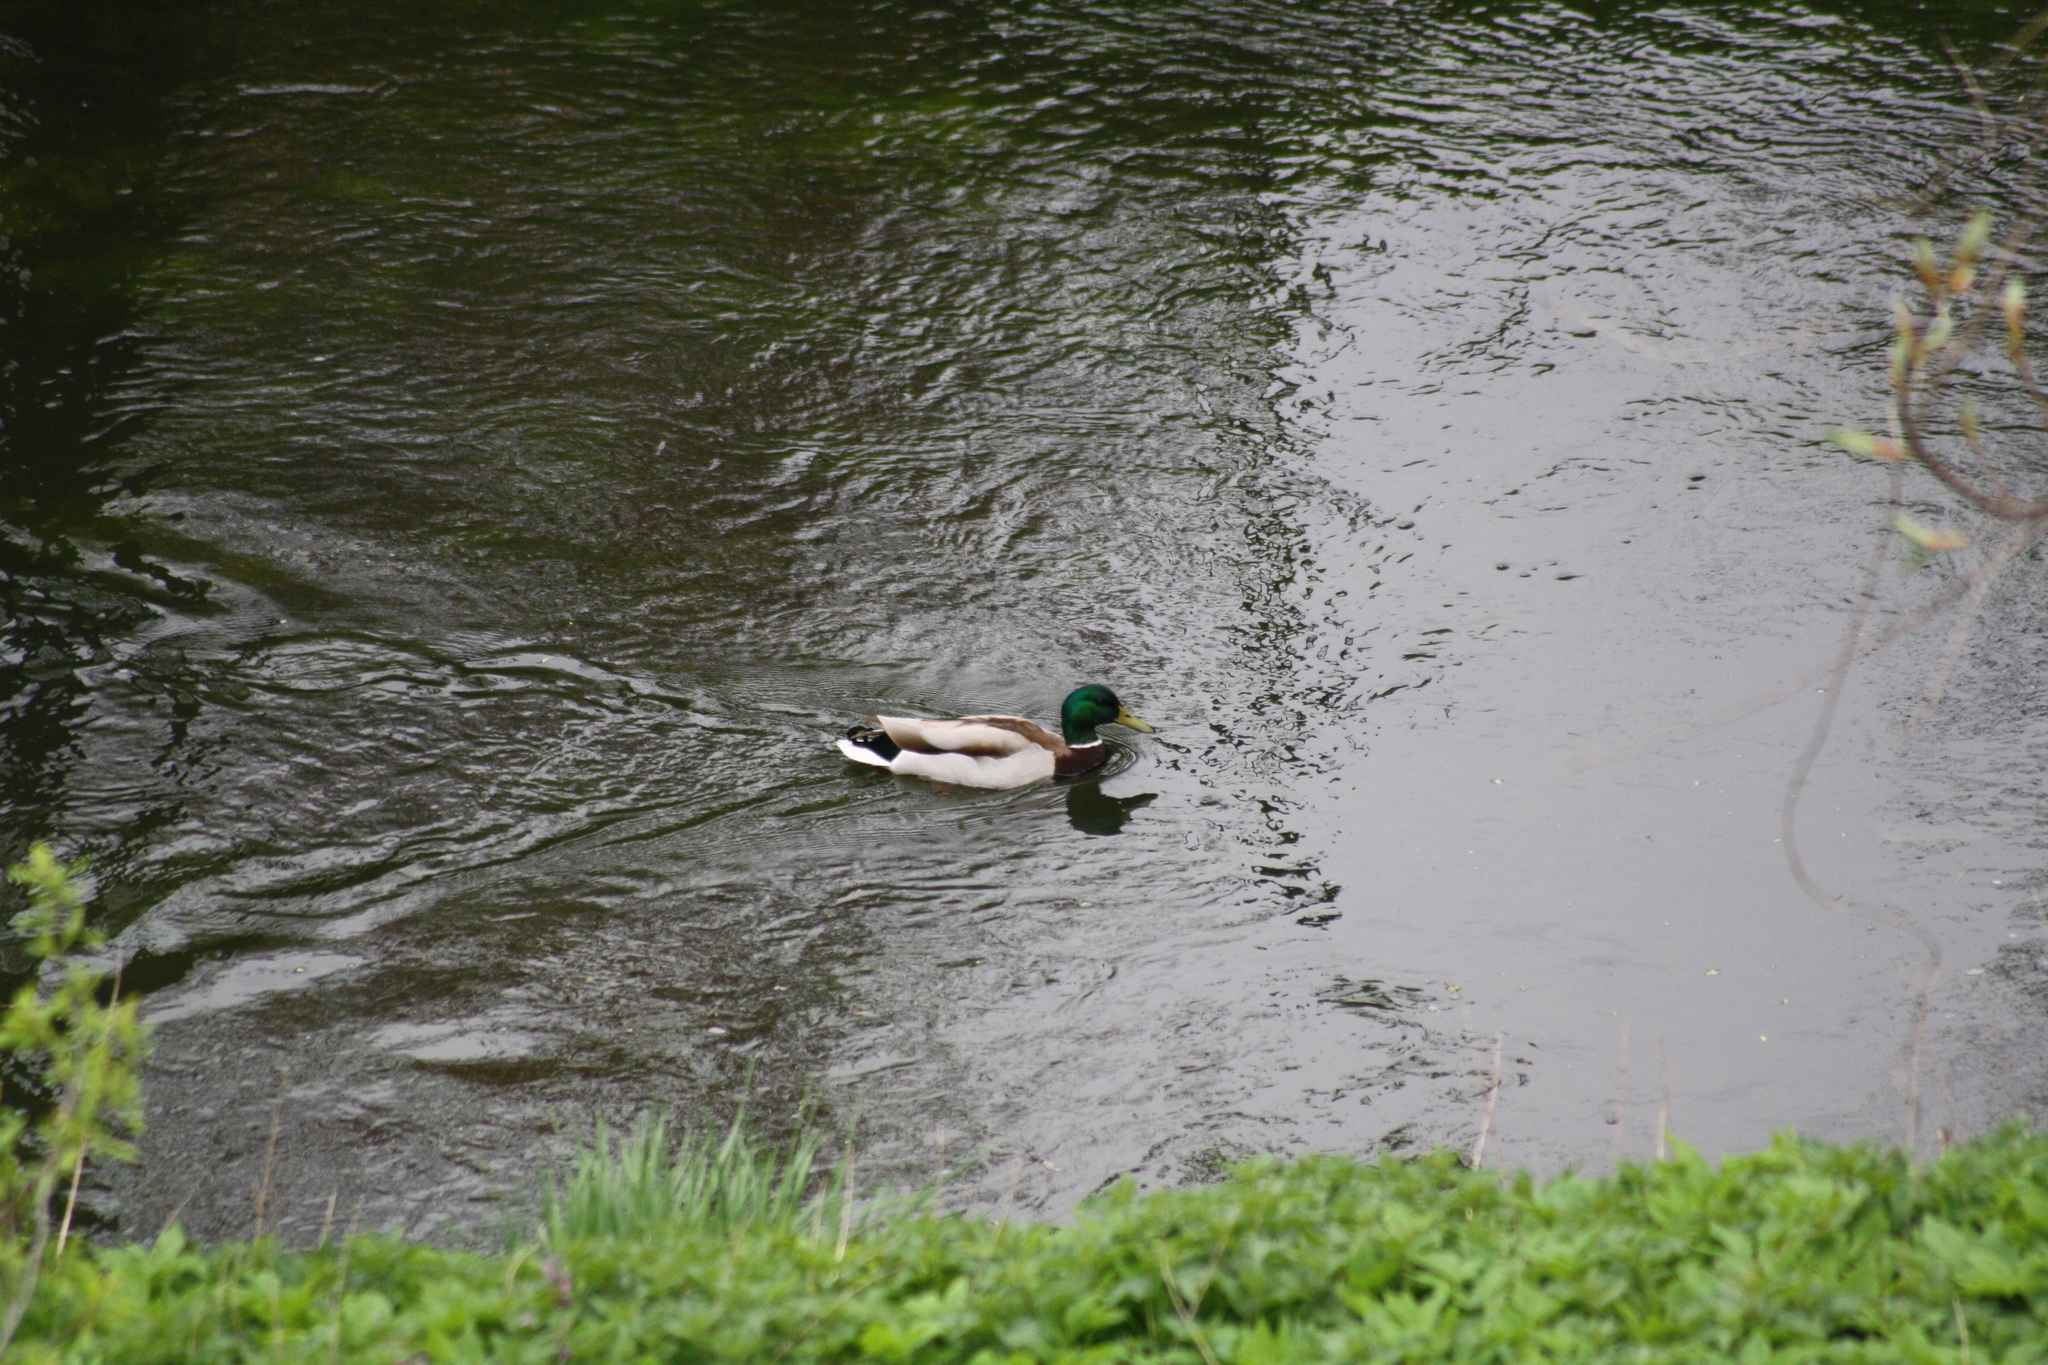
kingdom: Animalia
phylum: Chordata
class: Aves
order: Anseriformes
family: Anatidae
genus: Anas
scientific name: Anas platyrhynchos
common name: Mallard
